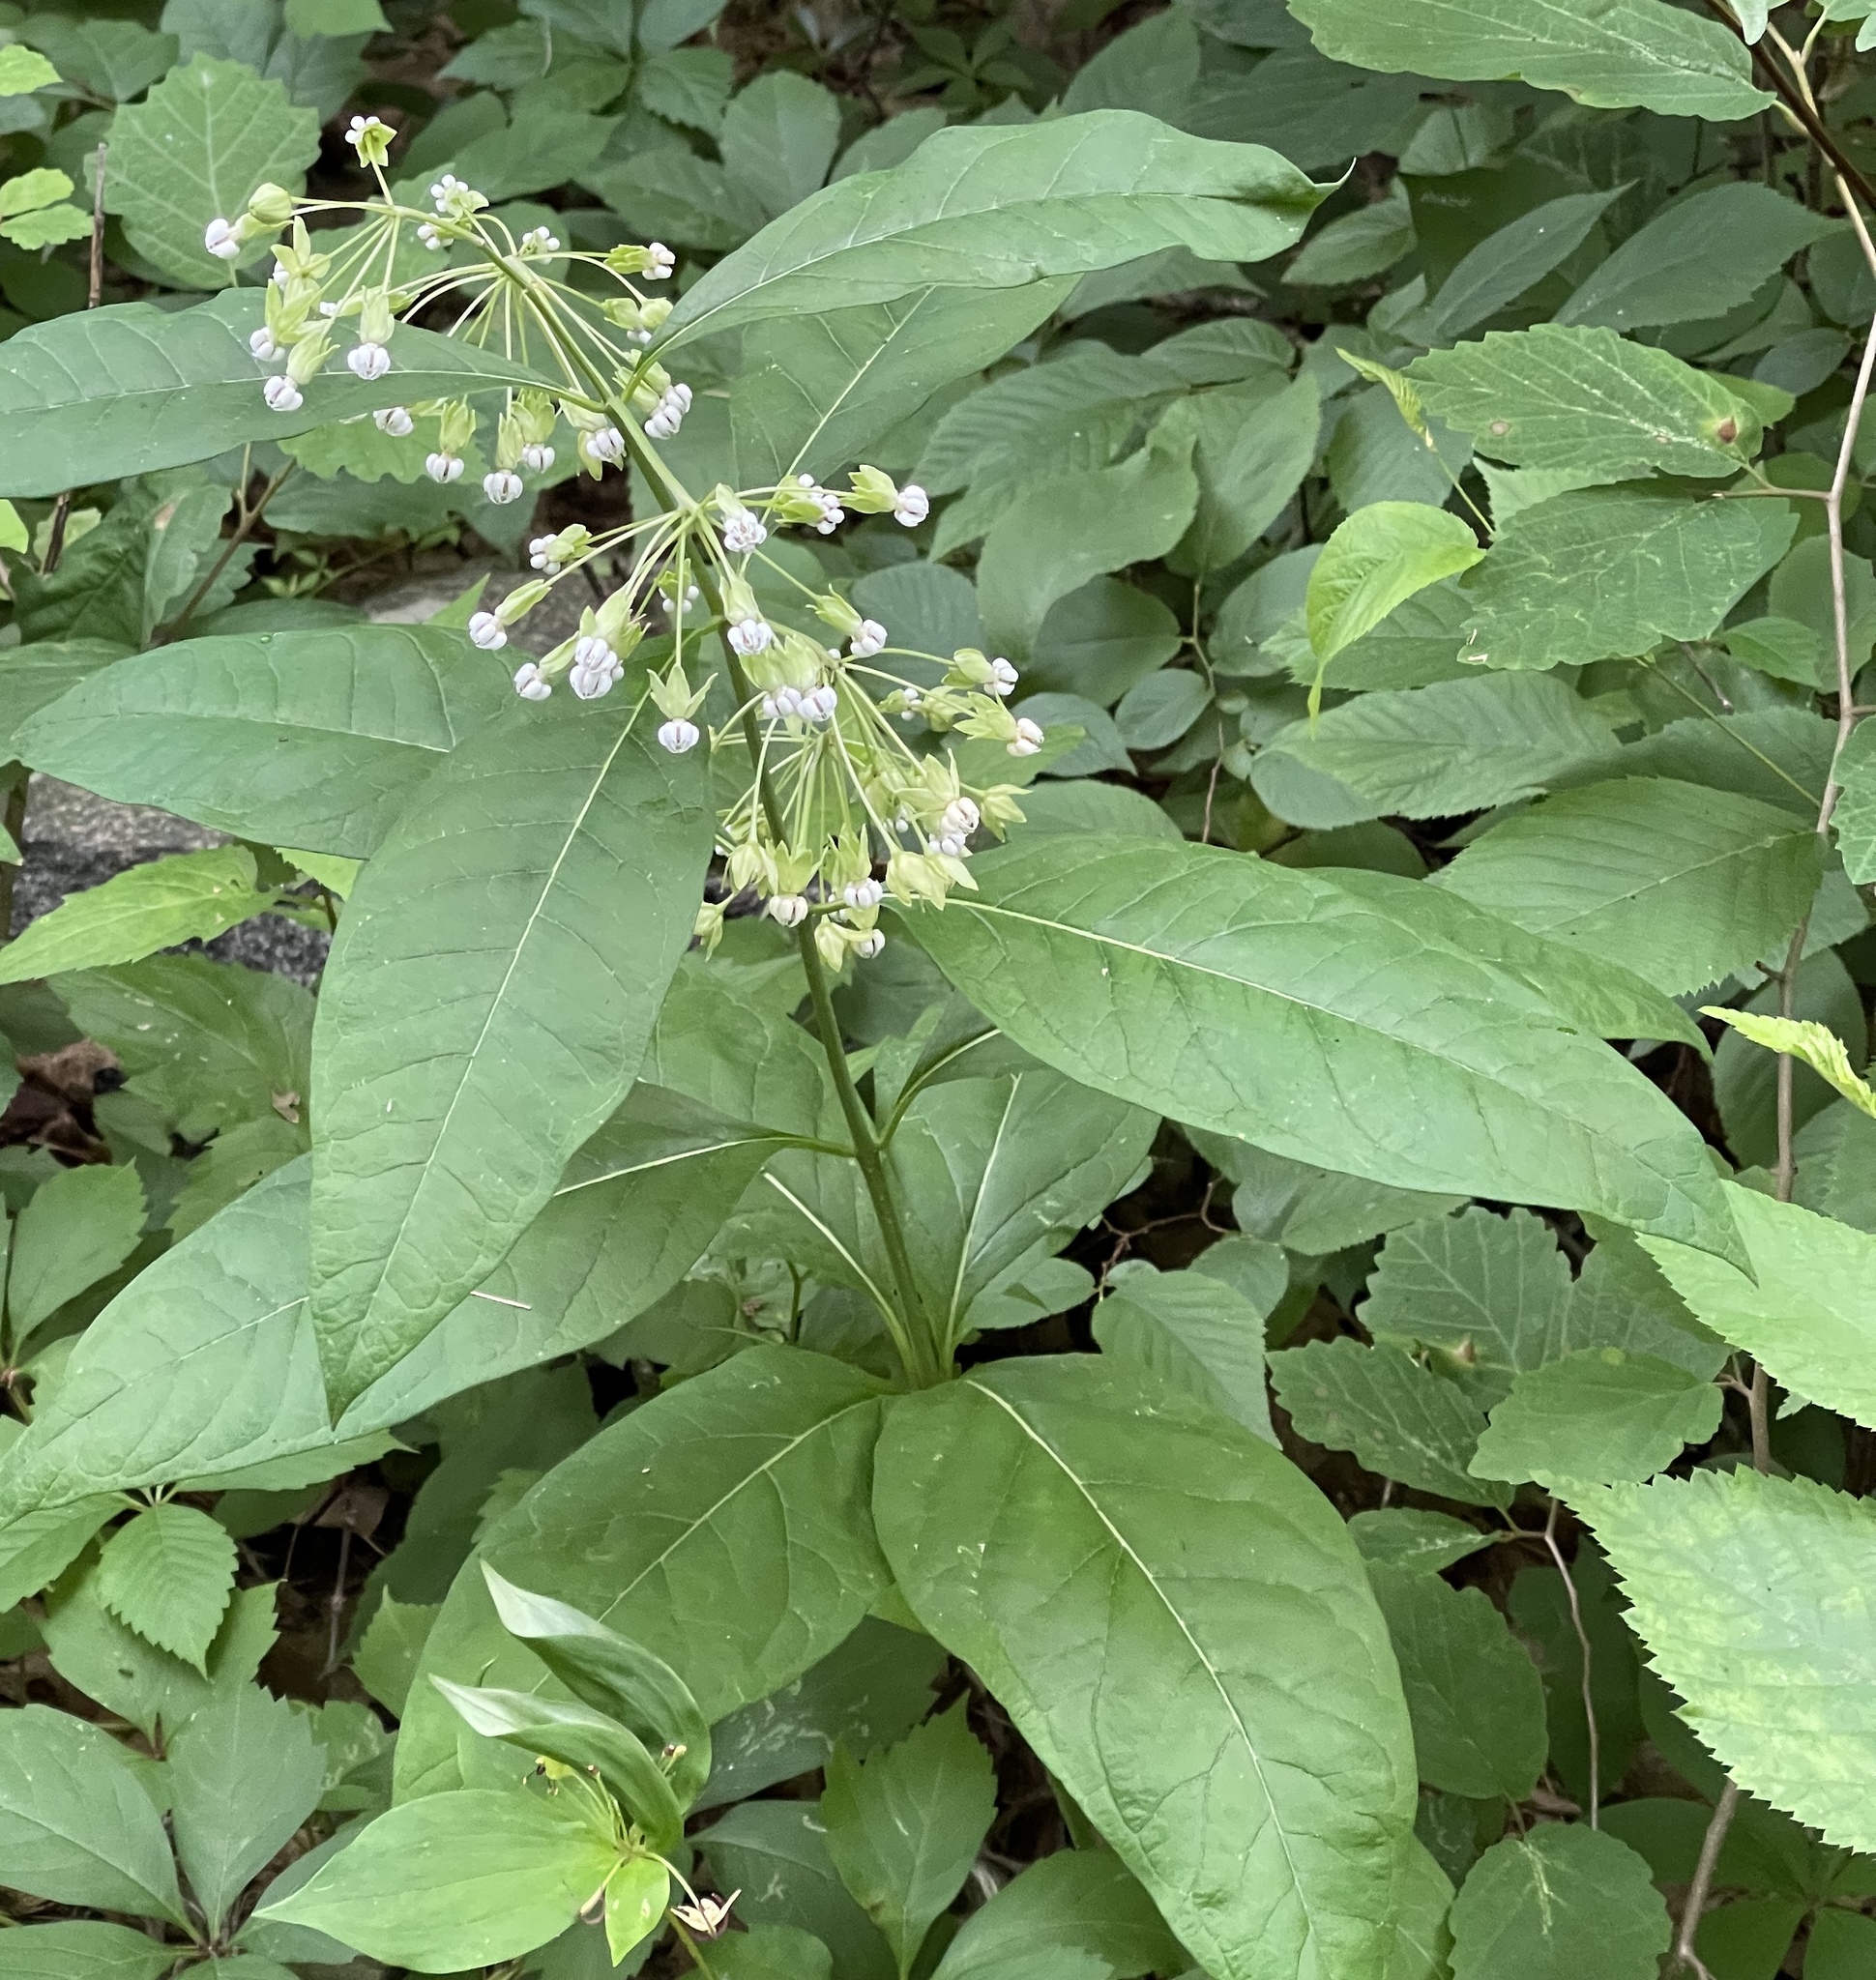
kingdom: Plantae
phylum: Tracheophyta
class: Magnoliopsida
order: Gentianales
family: Apocynaceae
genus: Asclepias
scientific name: Asclepias exaltata
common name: Poke milkweed
